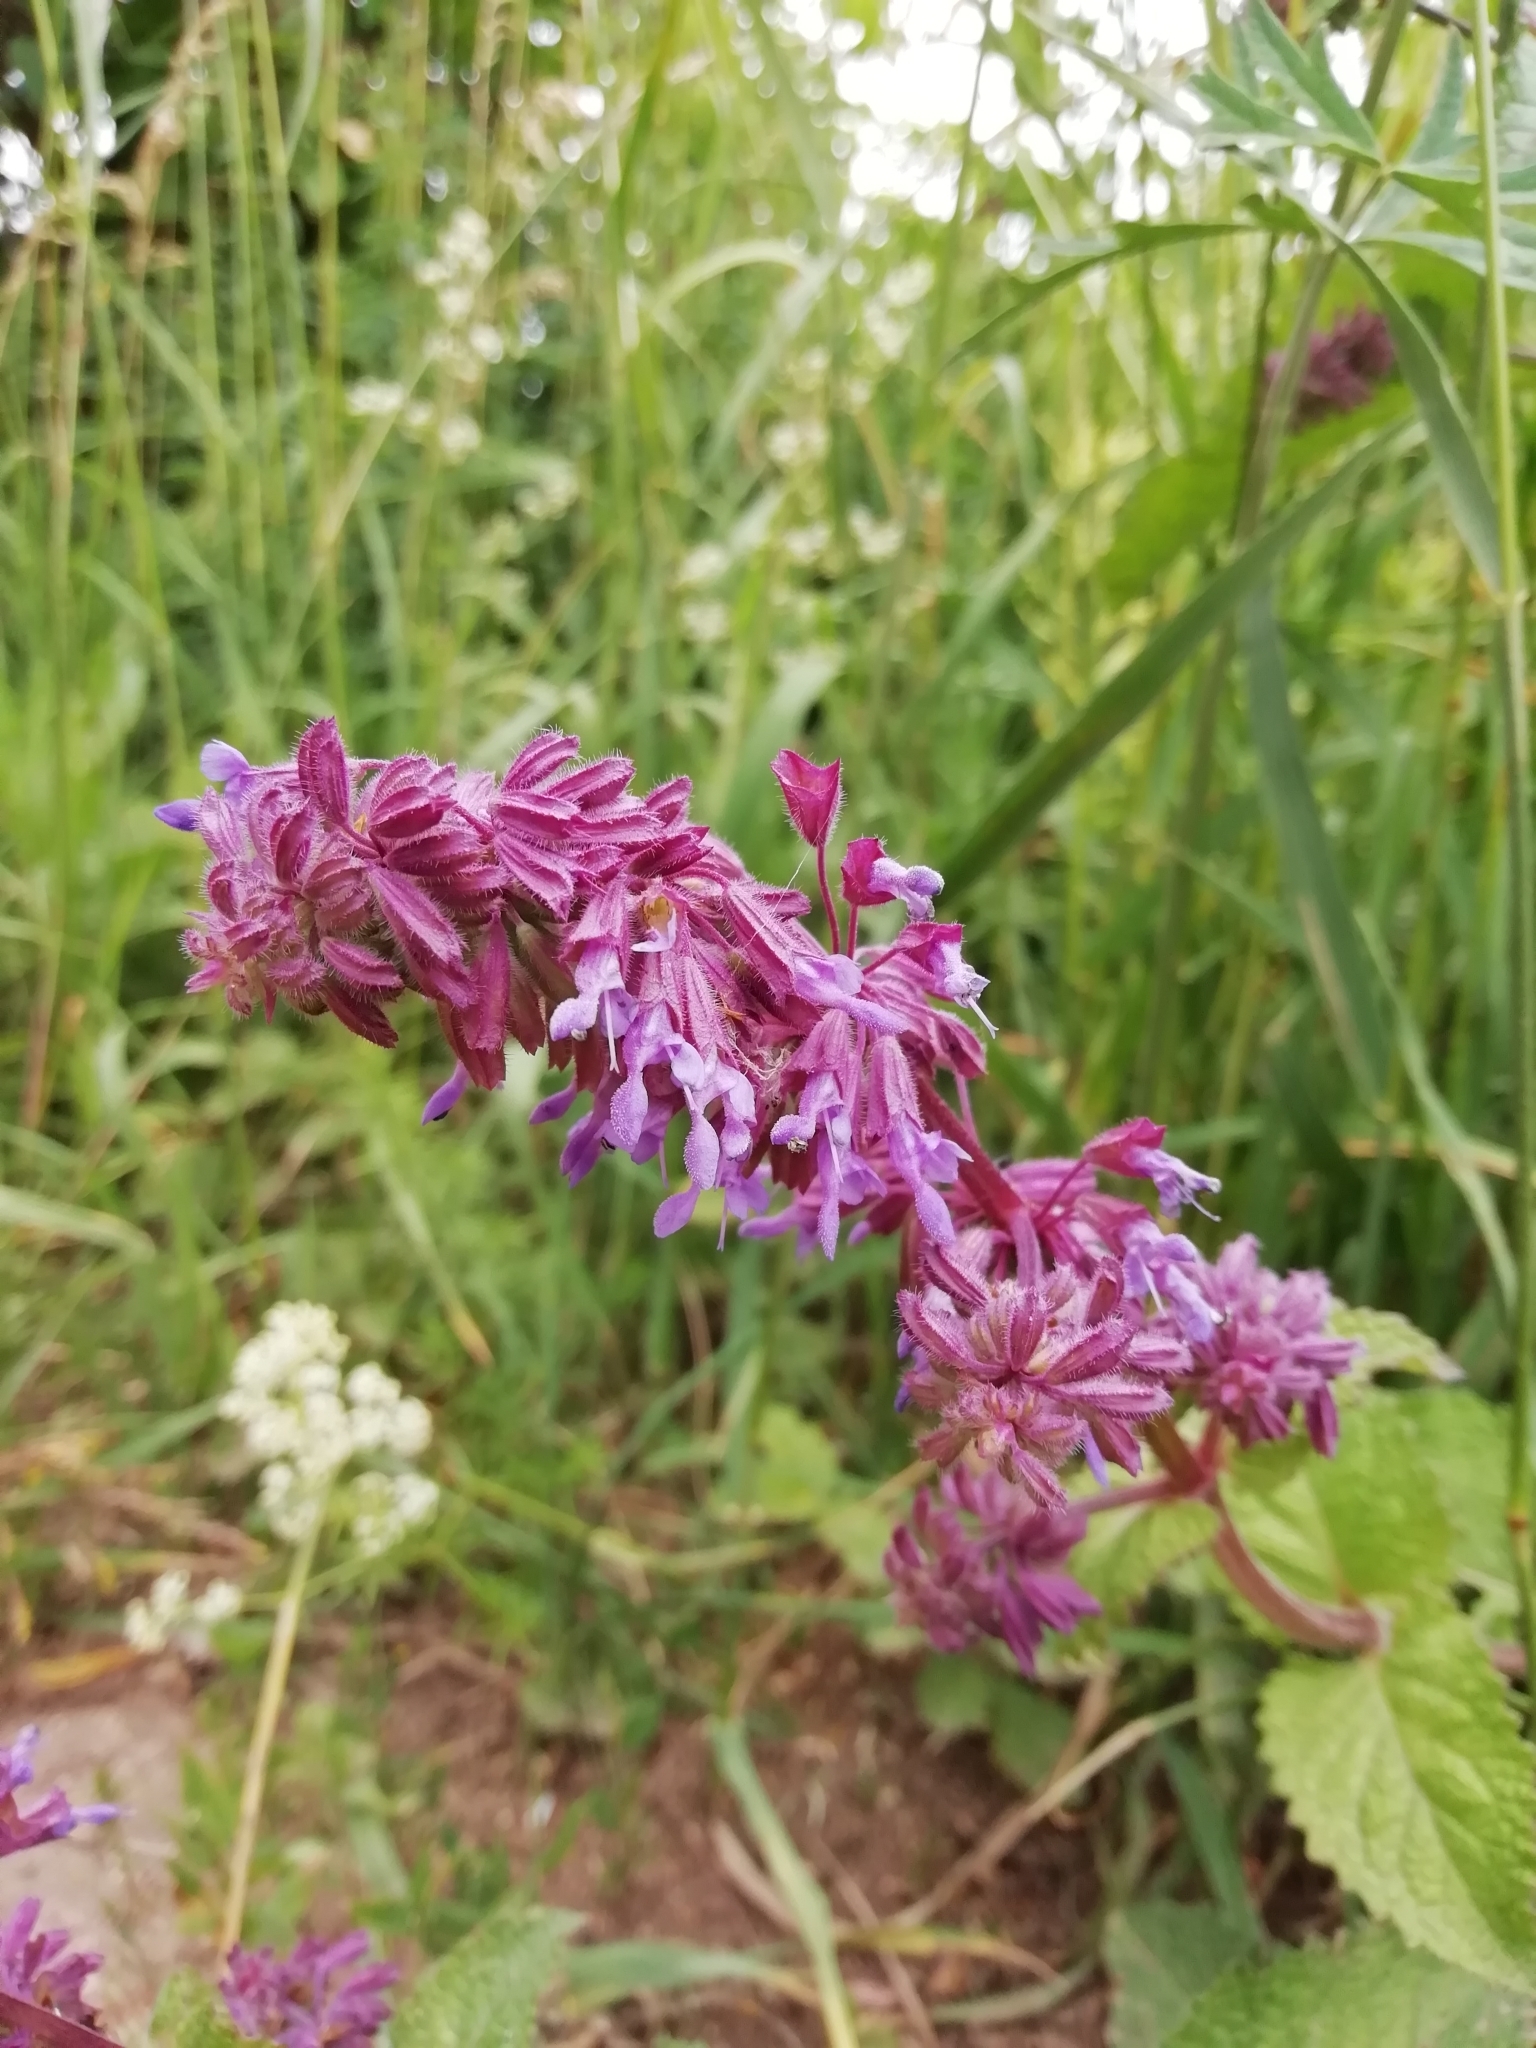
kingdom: Plantae
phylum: Tracheophyta
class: Magnoliopsida
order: Lamiales
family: Lamiaceae
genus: Salvia
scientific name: Salvia verticillata
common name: Whorled clary
